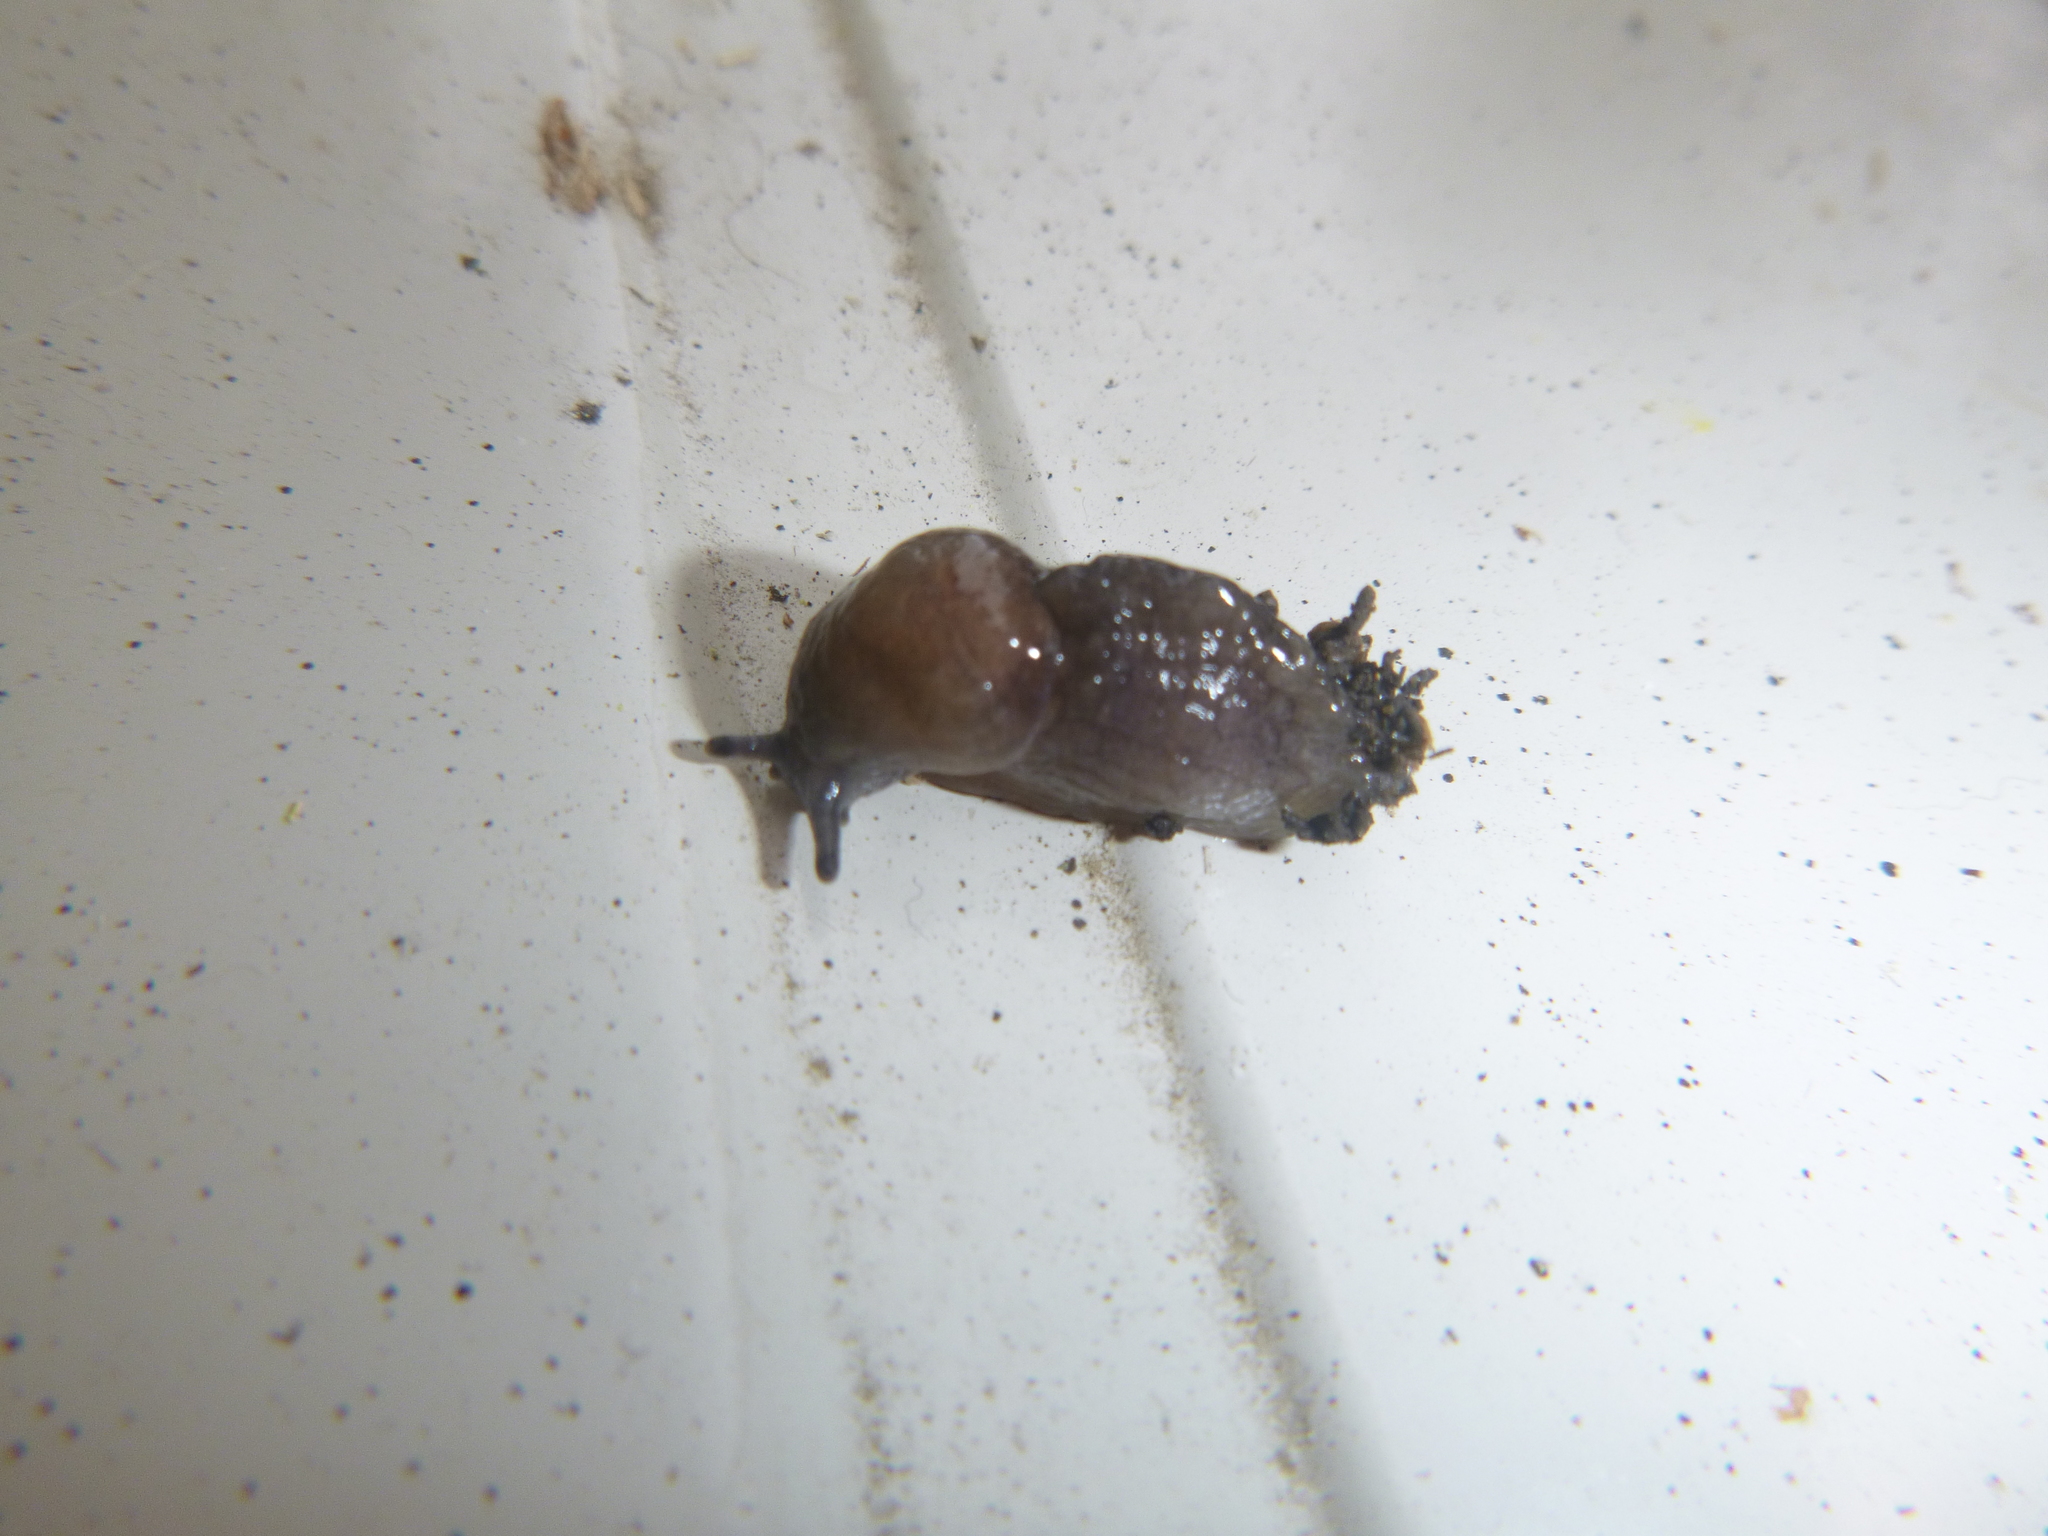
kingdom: Animalia
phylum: Mollusca
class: Gastropoda
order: Stylommatophora
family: Milacidae
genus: Milax
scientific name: Milax gagates
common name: Greenhouse slug
